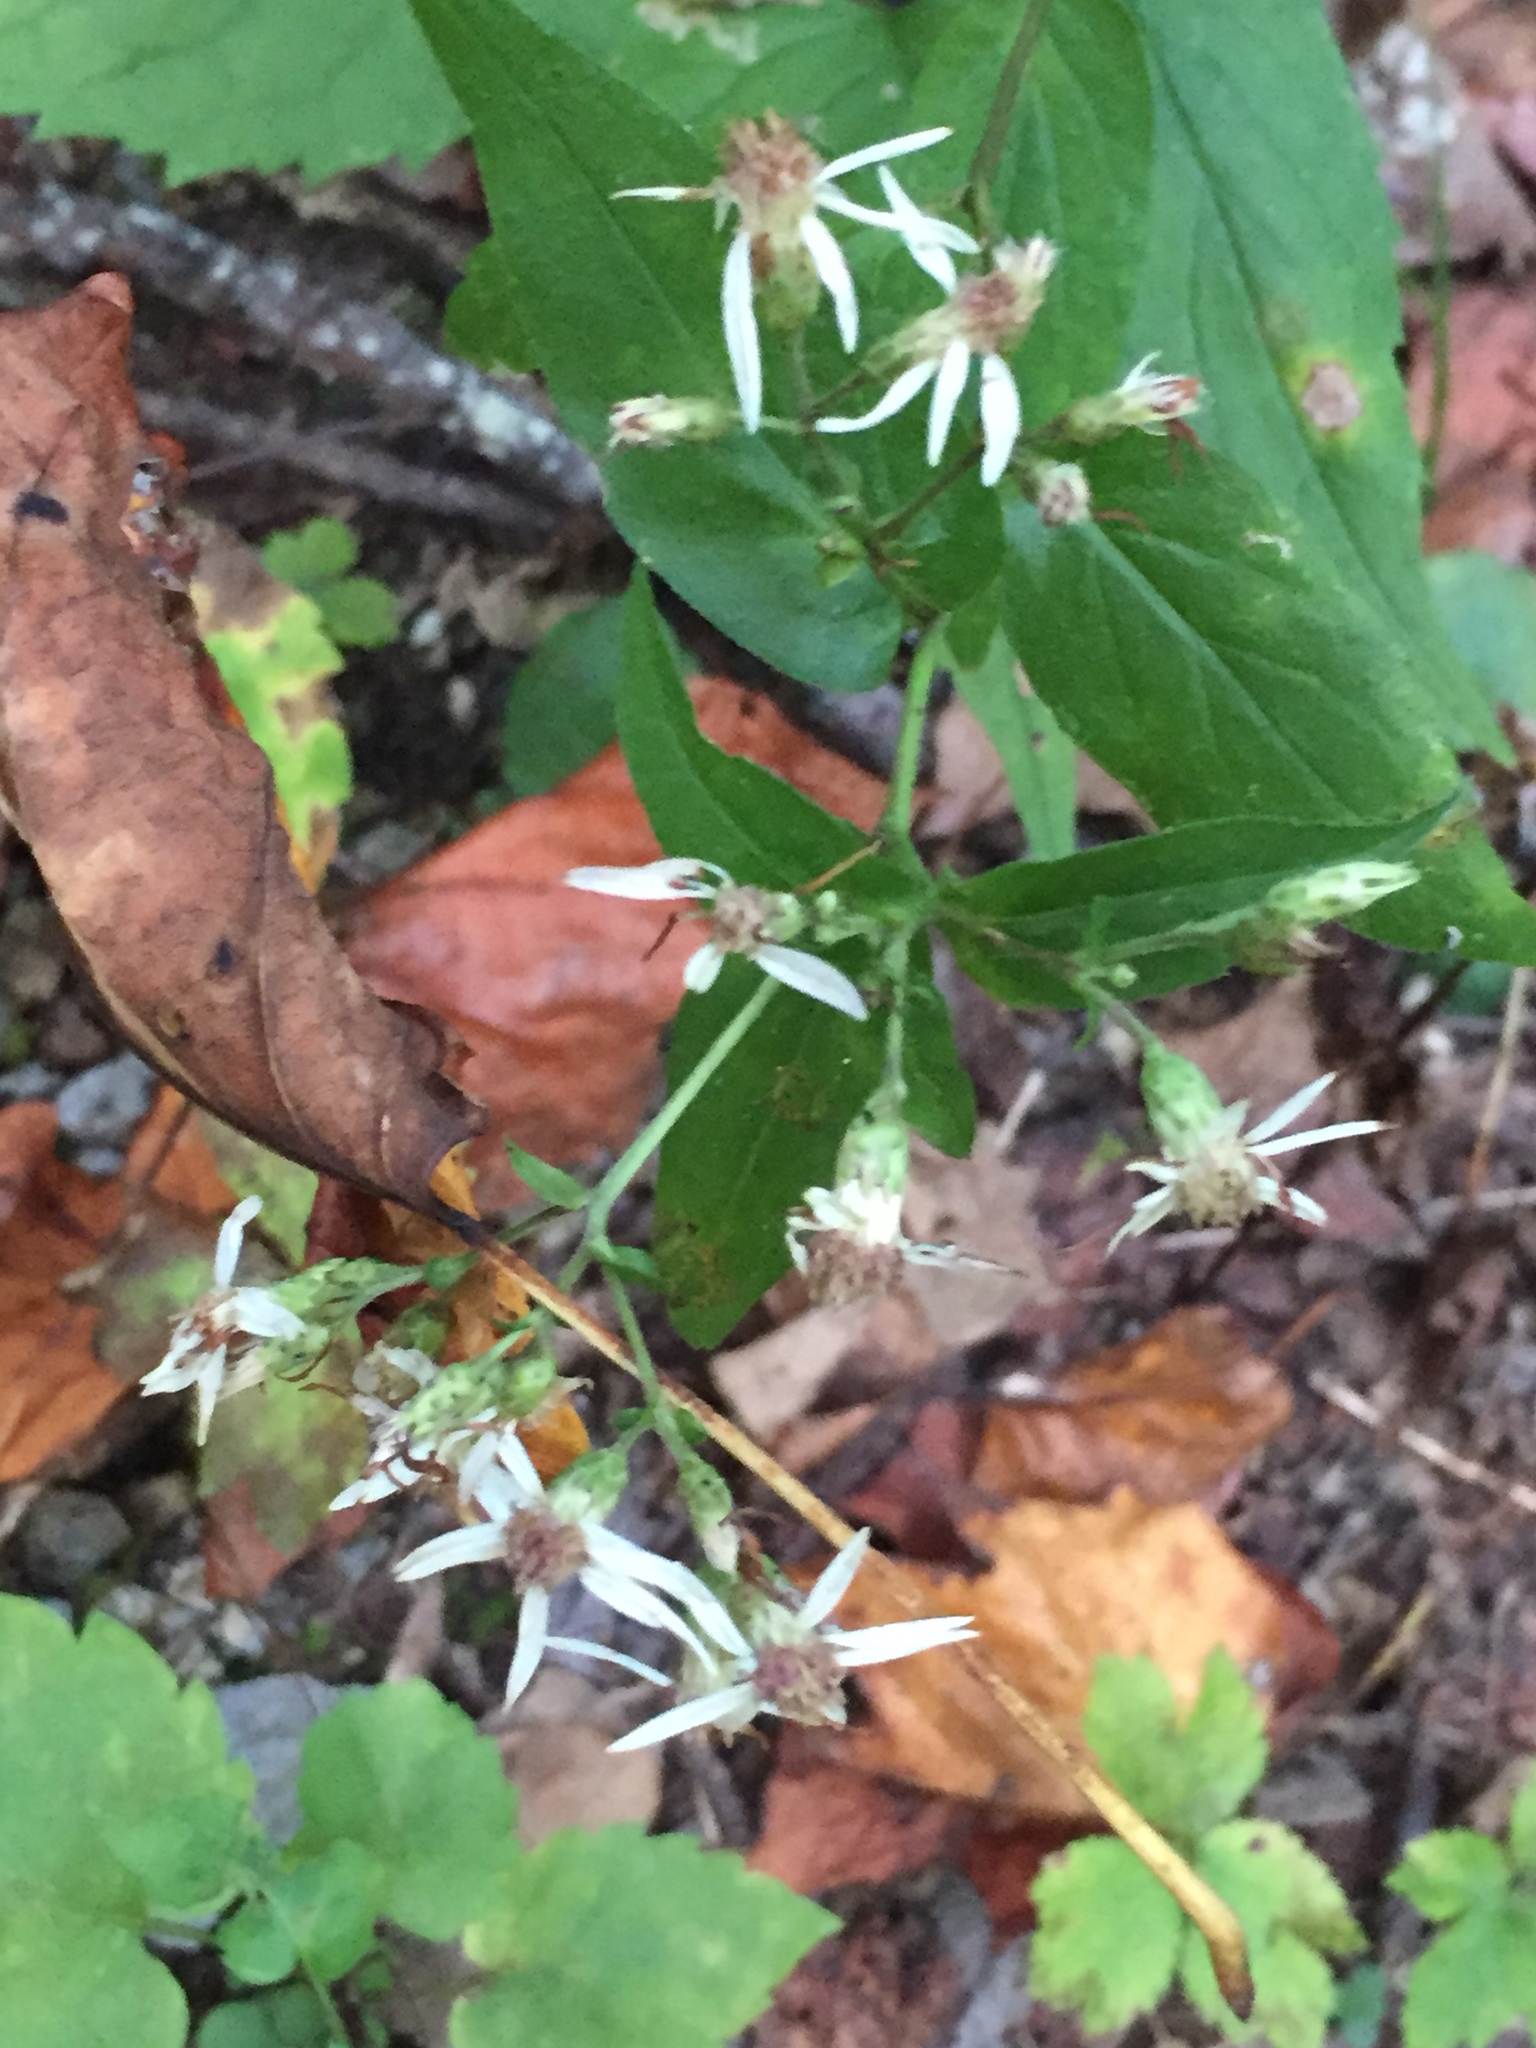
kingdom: Plantae
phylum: Tracheophyta
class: Magnoliopsida
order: Asterales
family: Asteraceae
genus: Eurybia
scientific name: Eurybia divaricata
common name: White wood aster
